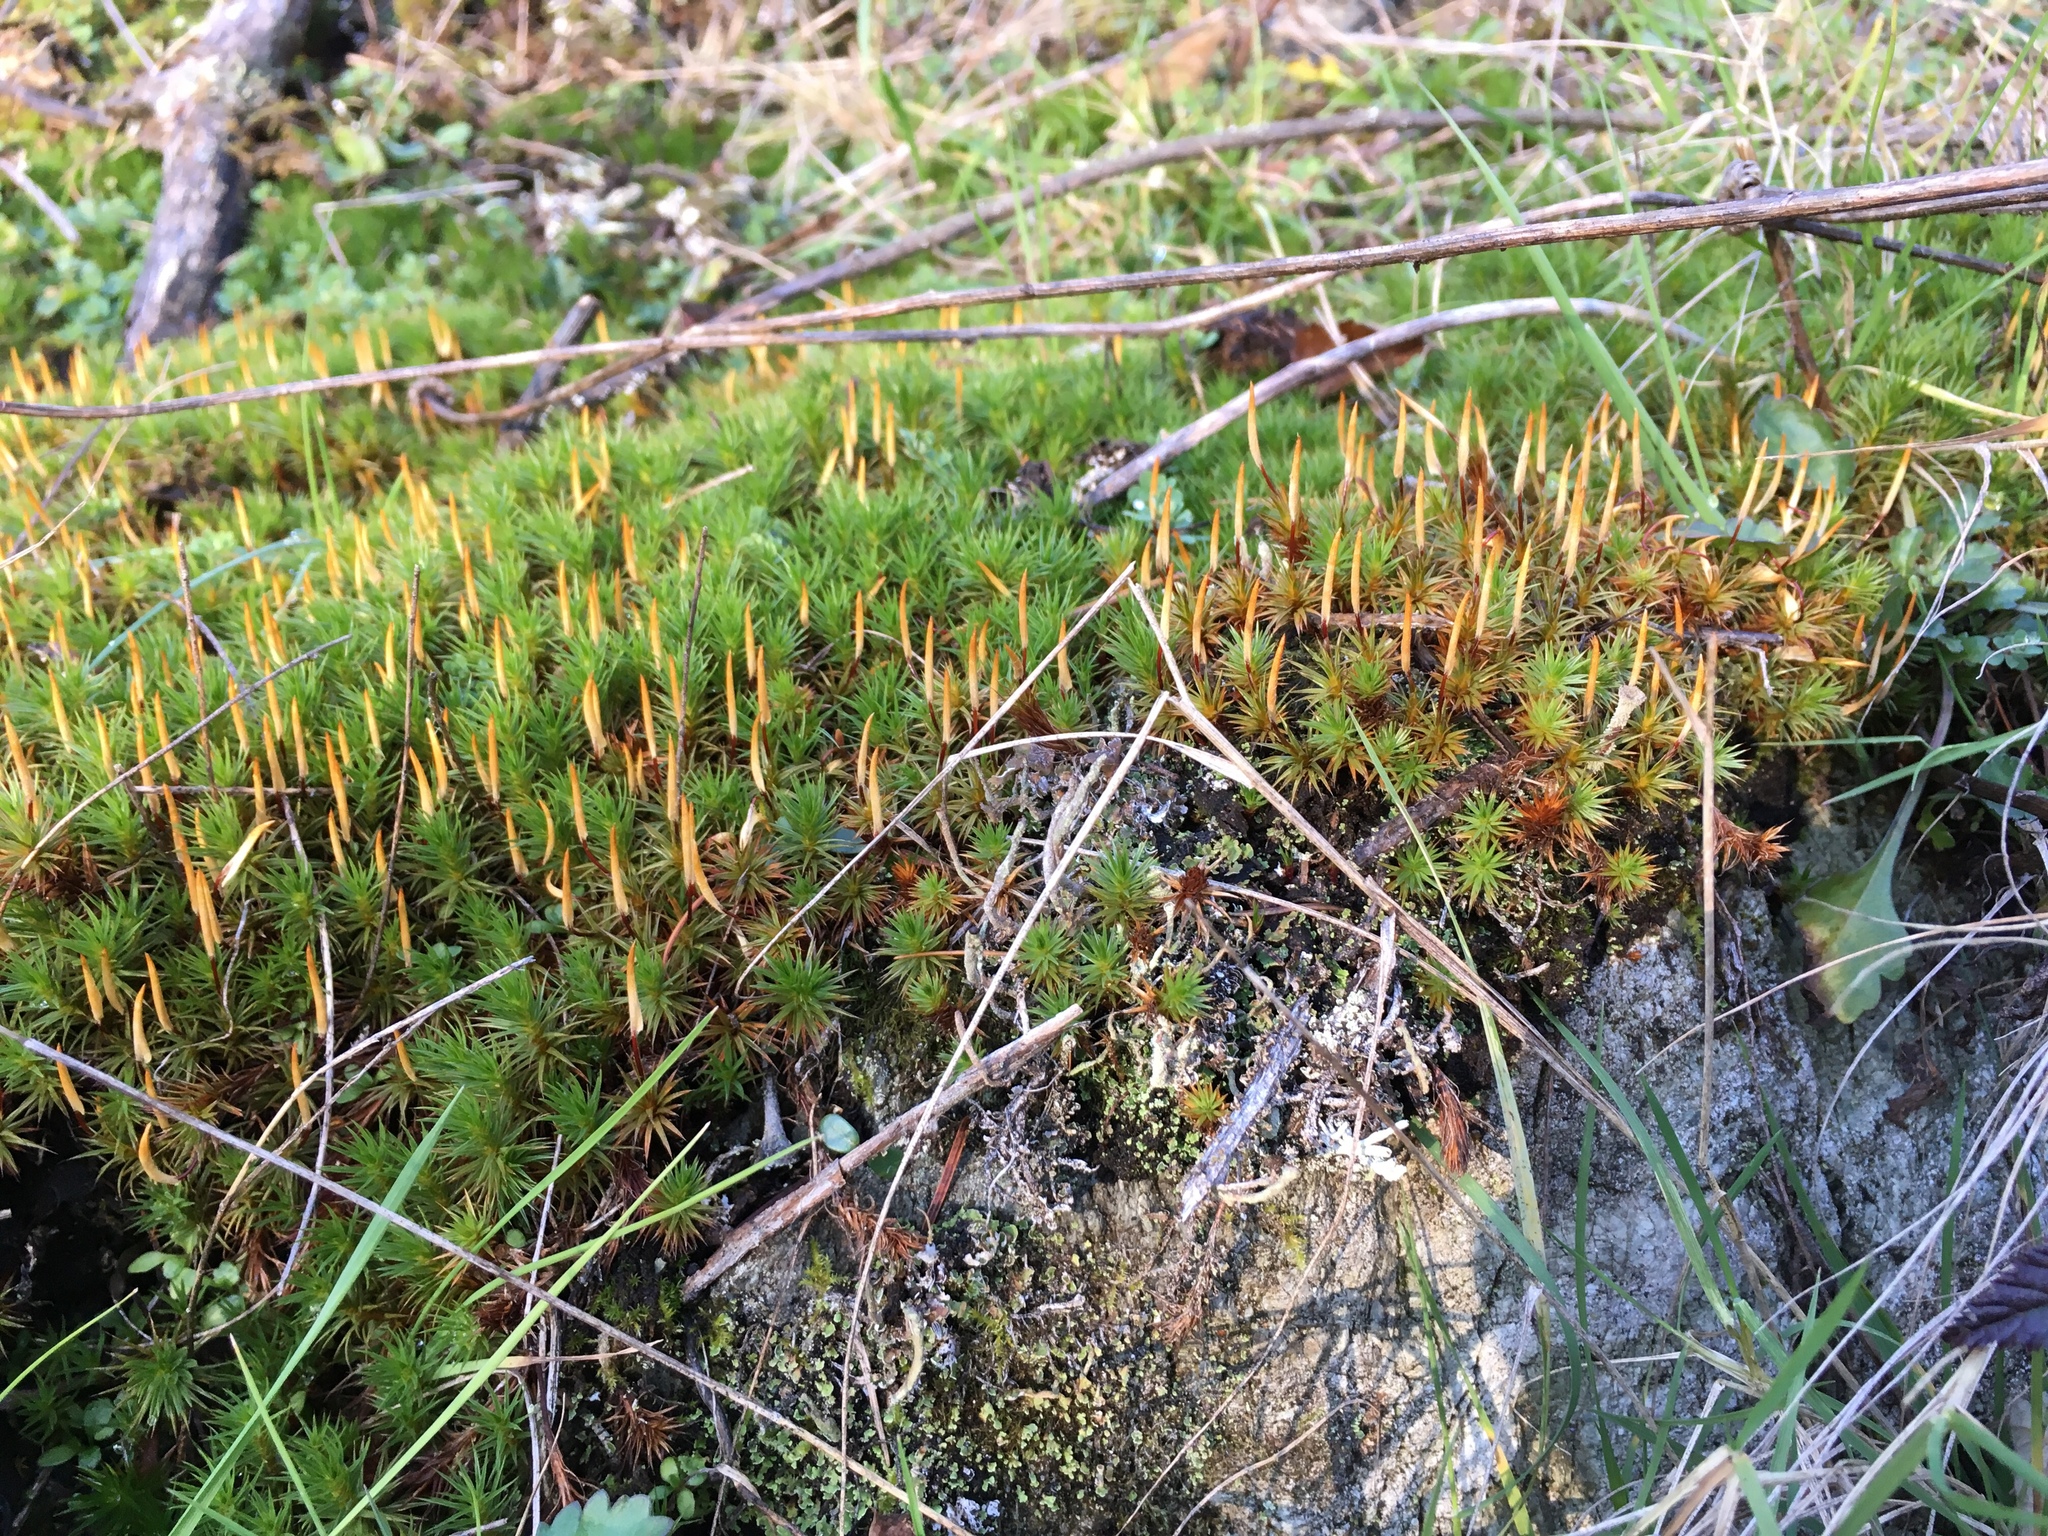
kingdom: Plantae
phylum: Bryophyta
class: Polytrichopsida
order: Polytrichales
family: Polytrichaceae
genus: Polytrichum
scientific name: Polytrichum juniperinum
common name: Juniper haircap moss
